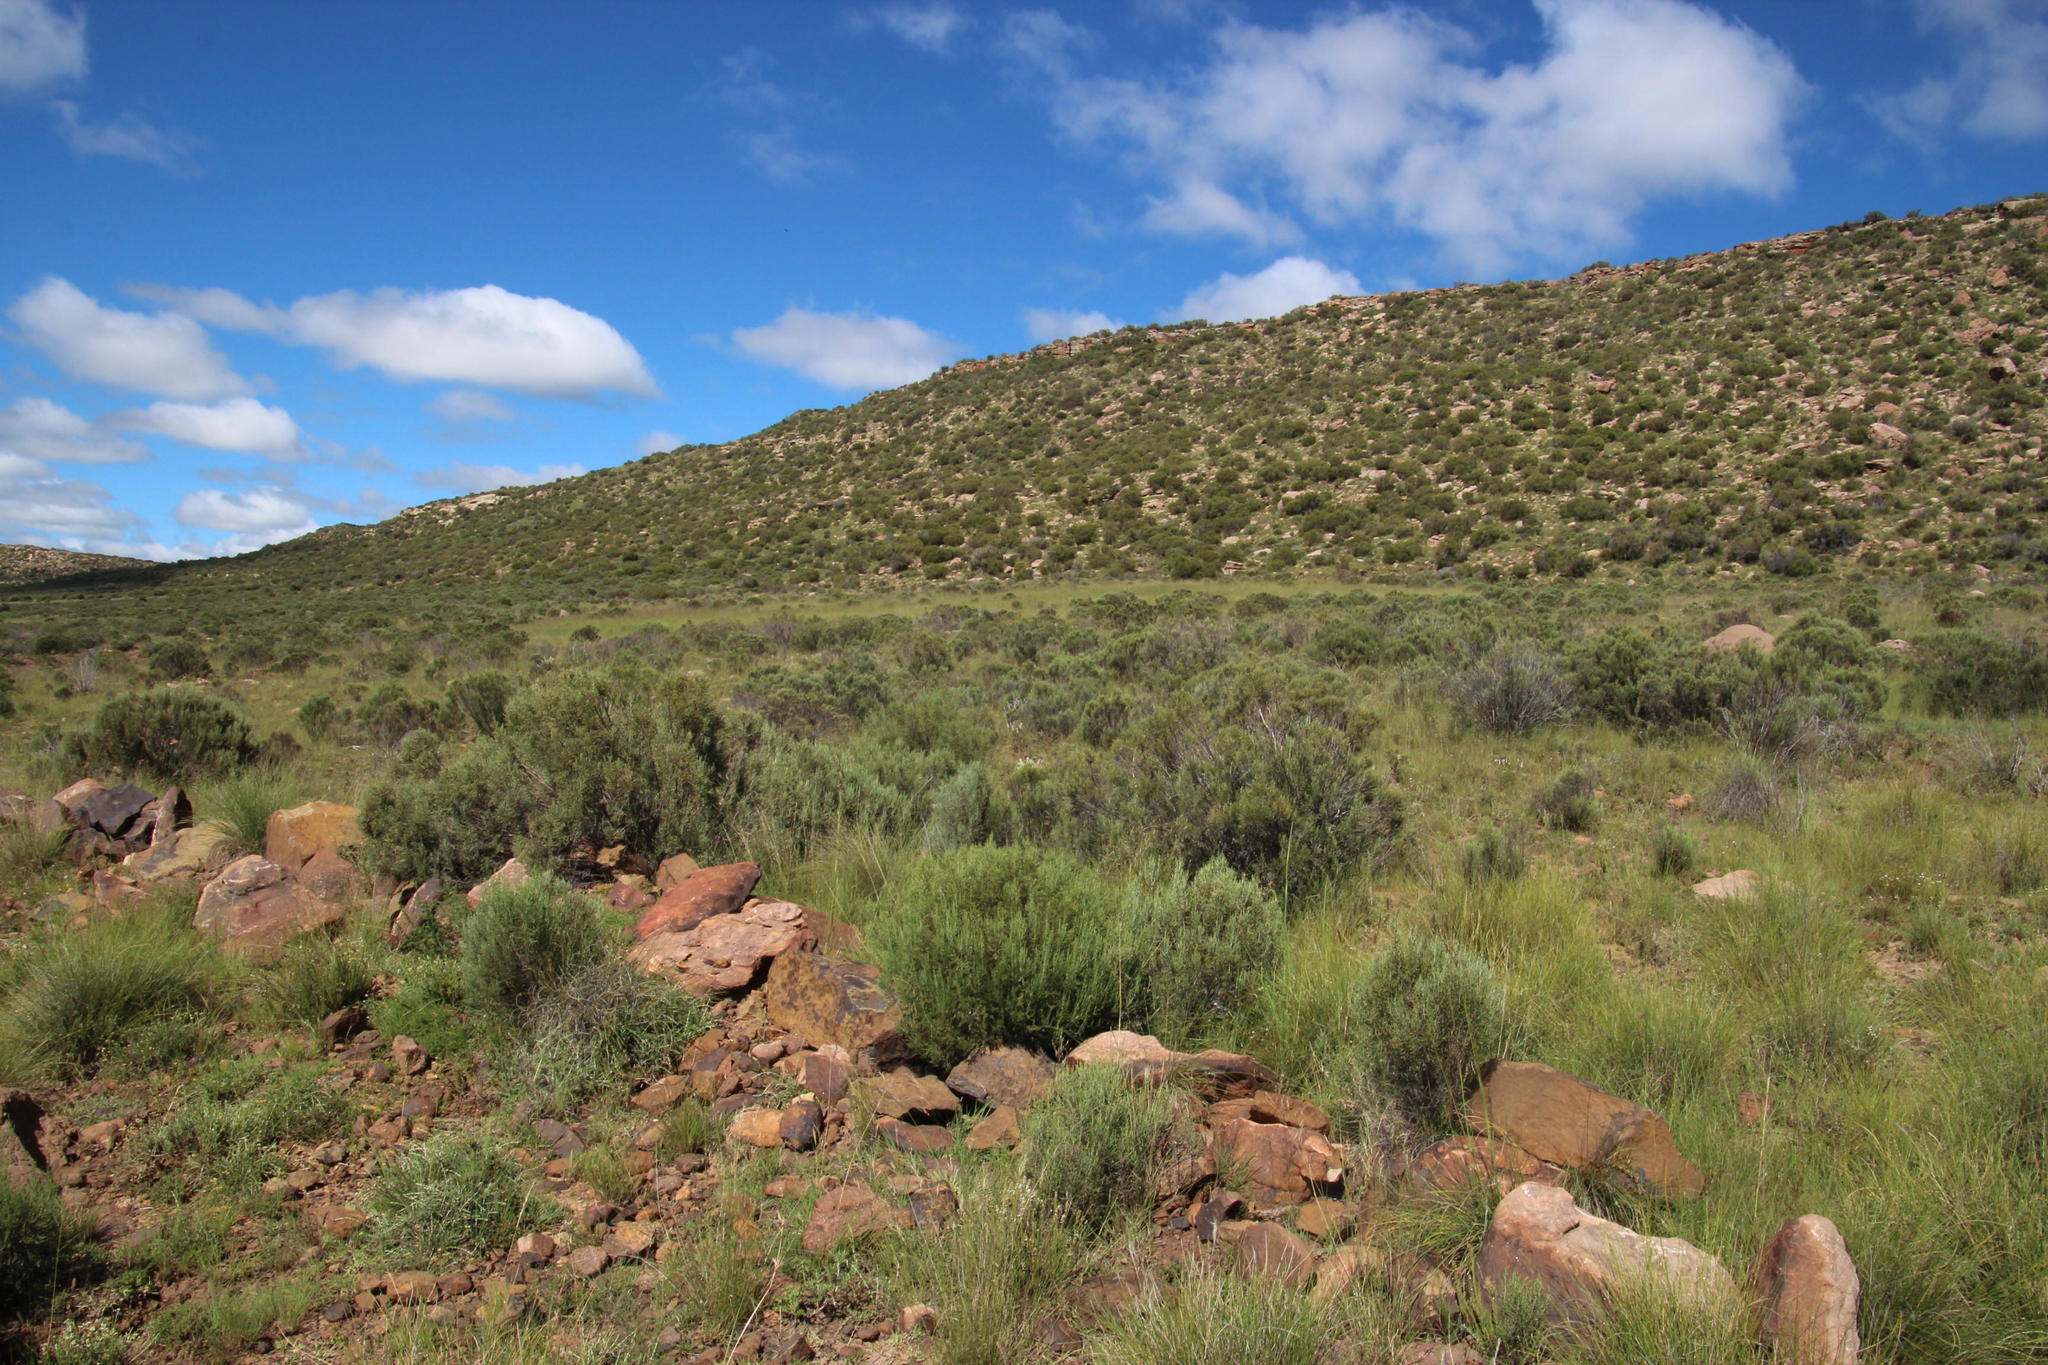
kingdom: Plantae
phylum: Tracheophyta
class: Magnoliopsida
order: Asterales
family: Asteraceae
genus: Dicerothamnus
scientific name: Dicerothamnus rhinocerotis
